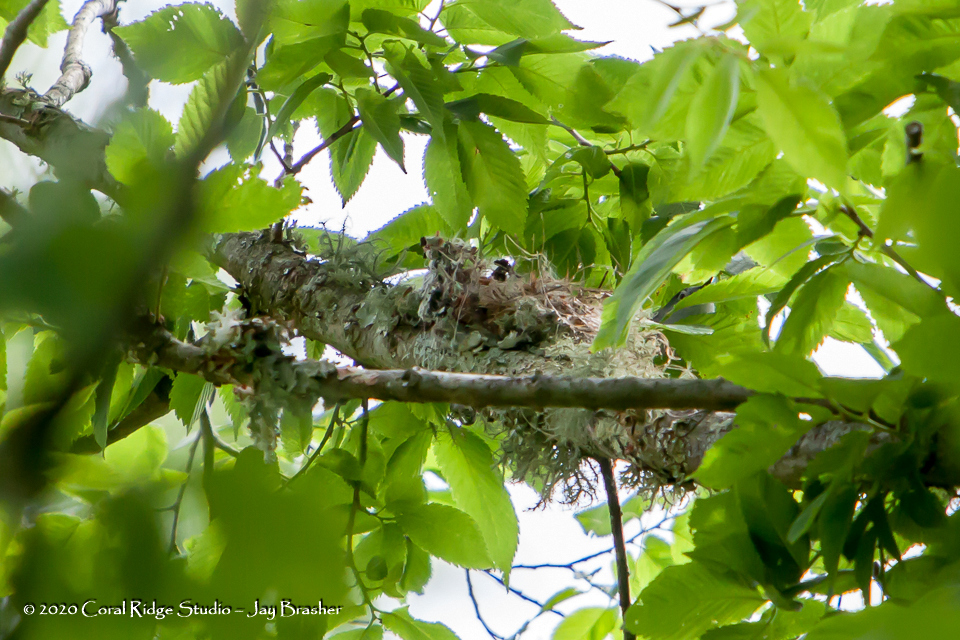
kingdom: Animalia
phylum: Chordata
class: Aves
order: Passeriformes
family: Polioptilidae
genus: Polioptila
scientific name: Polioptila caerulea
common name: Blue-gray gnatcatcher
